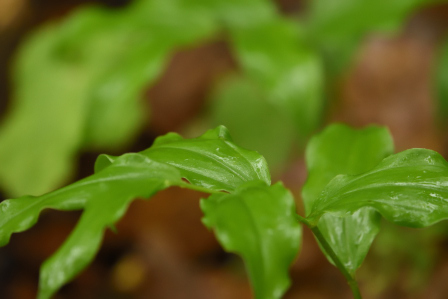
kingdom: Plantae
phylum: Tracheophyta
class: Liliopsida
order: Asparagales
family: Asparagaceae
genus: Maianthemum
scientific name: Maianthemum racemosum
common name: False spikenard
